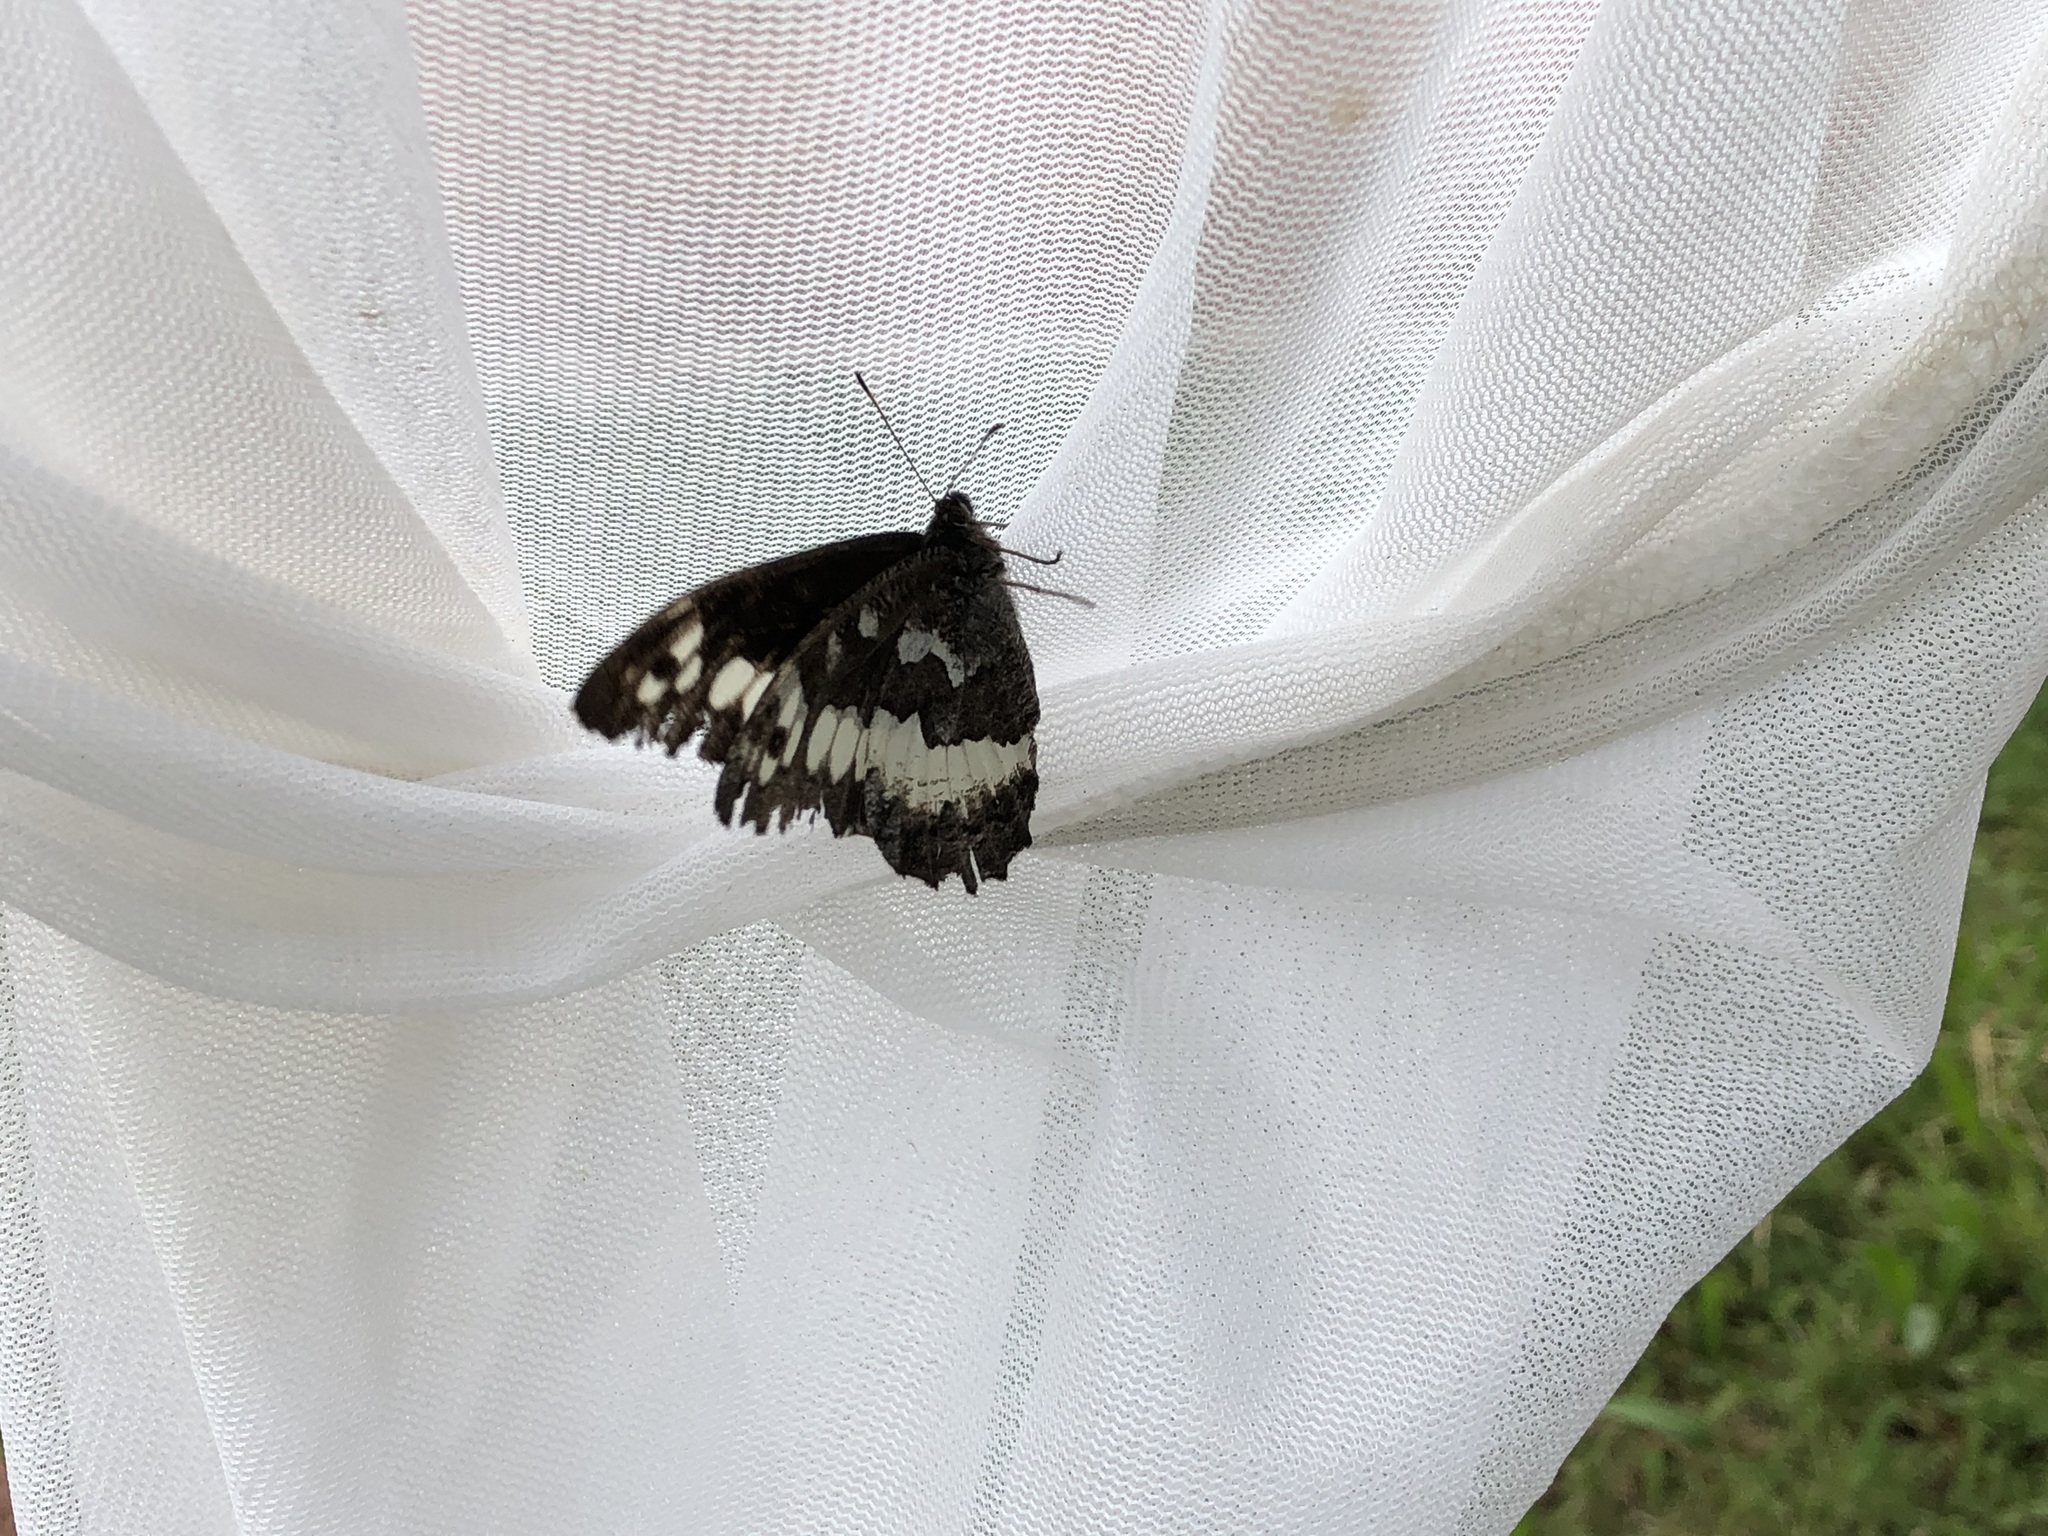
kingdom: Animalia
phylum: Arthropoda
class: Insecta
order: Lepidoptera
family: Lycaenidae
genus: Loweia
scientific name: Loweia tityrus
